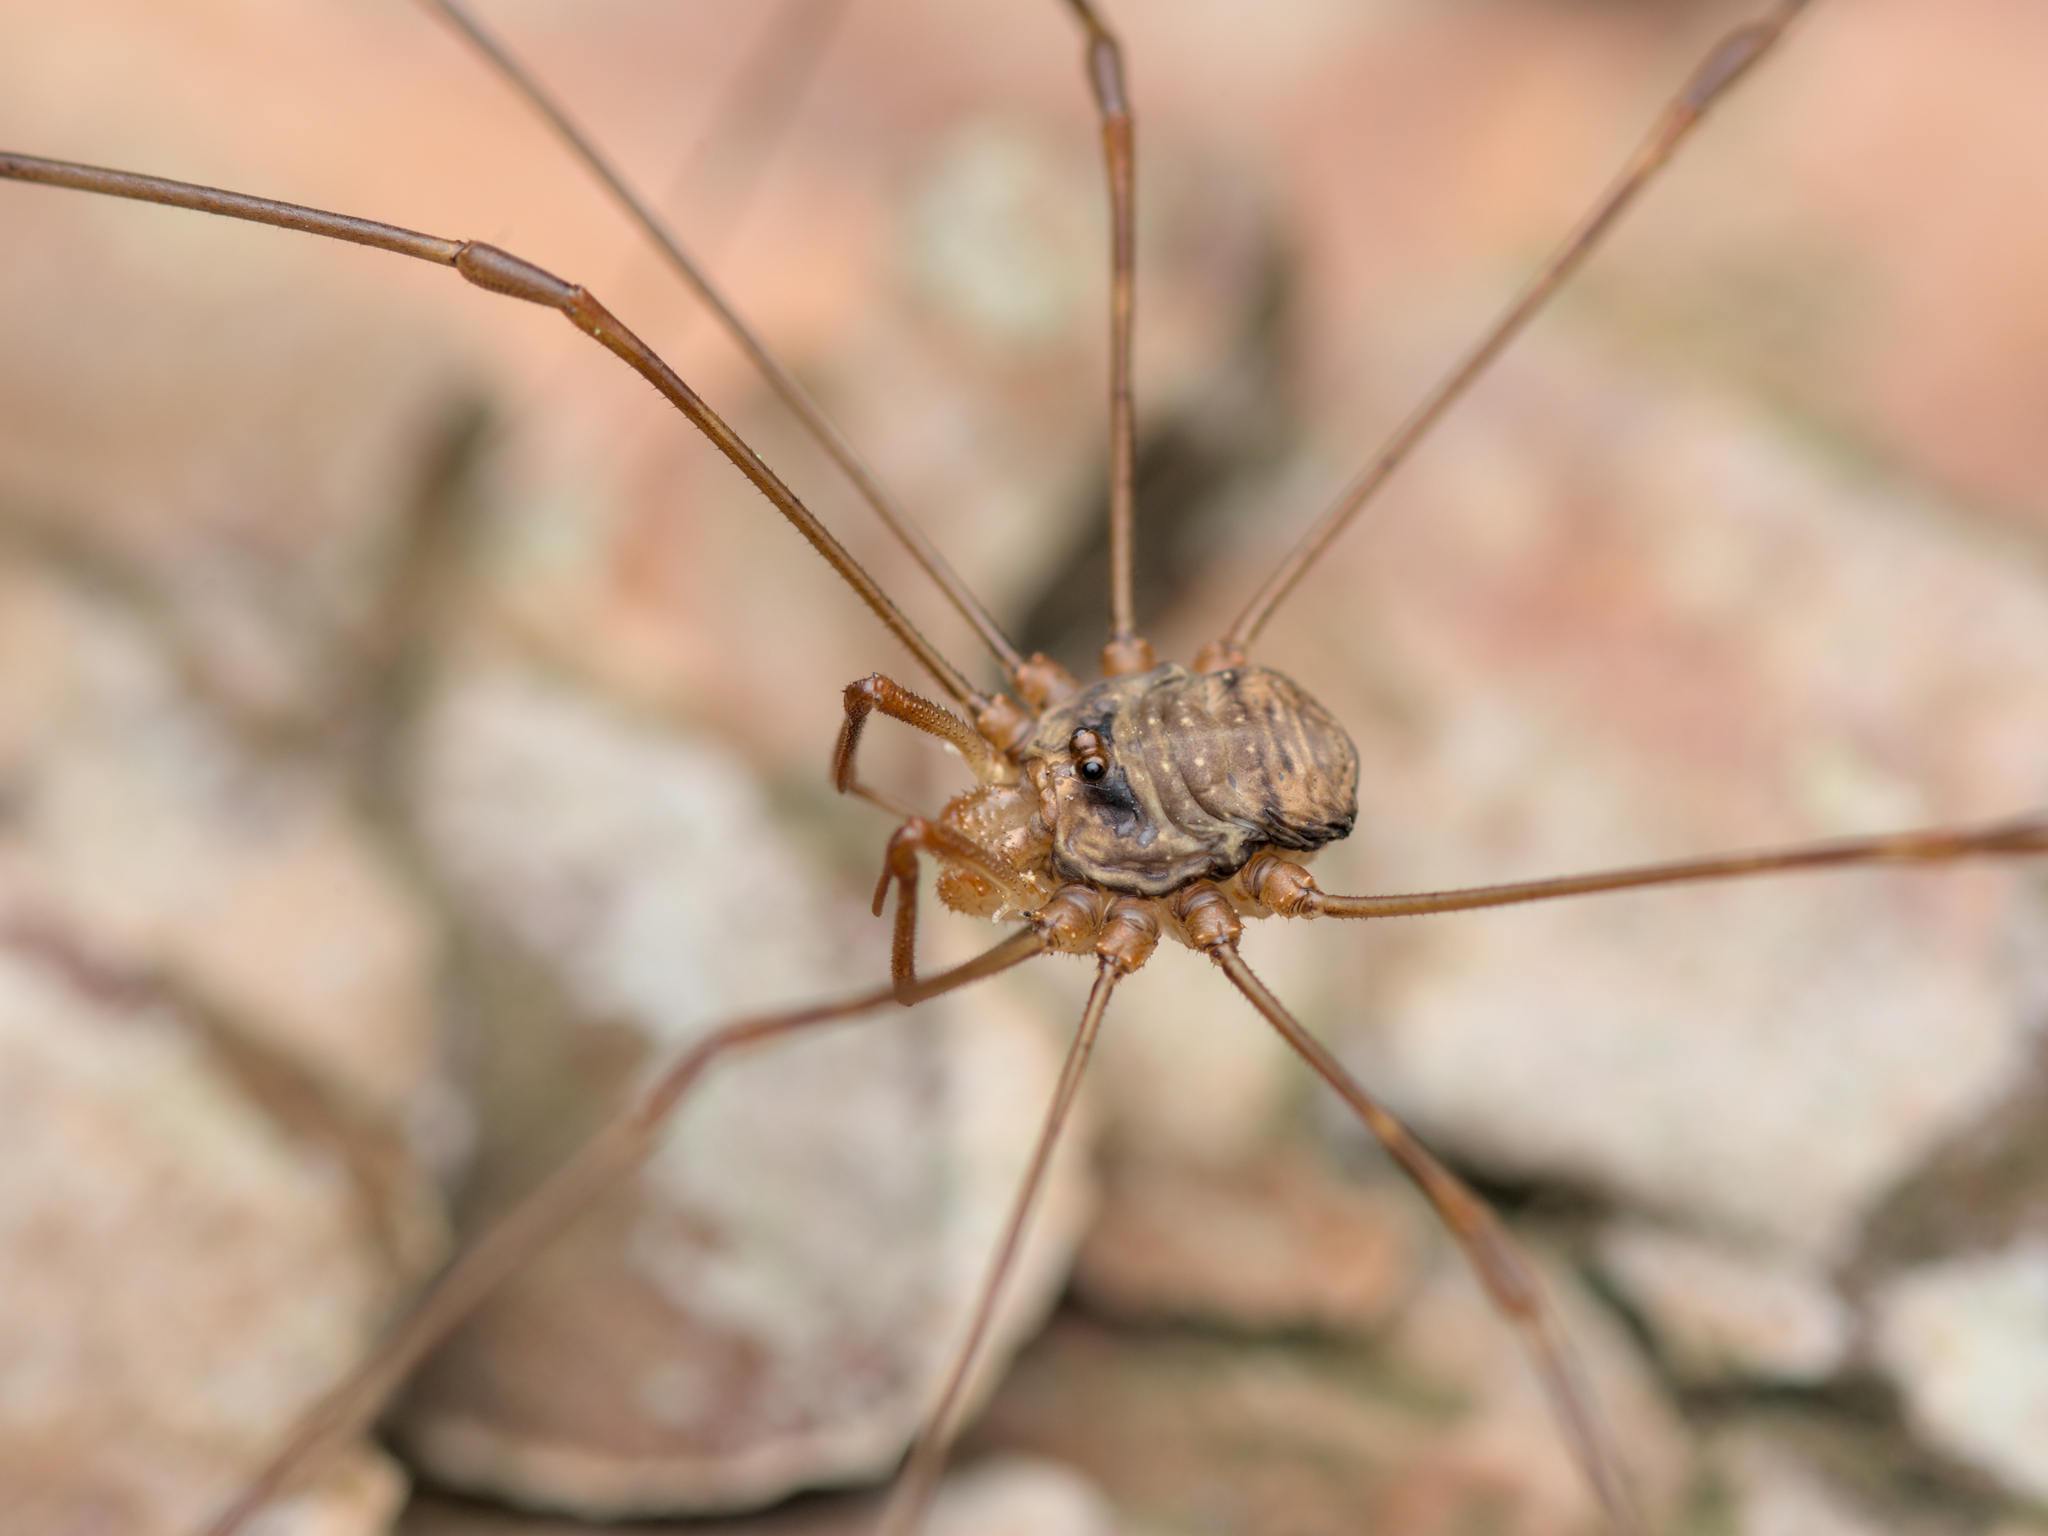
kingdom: Animalia
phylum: Arthropoda
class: Arachnida
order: Opiliones
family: Phalangiidae
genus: Dicranopalpus
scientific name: Dicranopalpus ramosus
